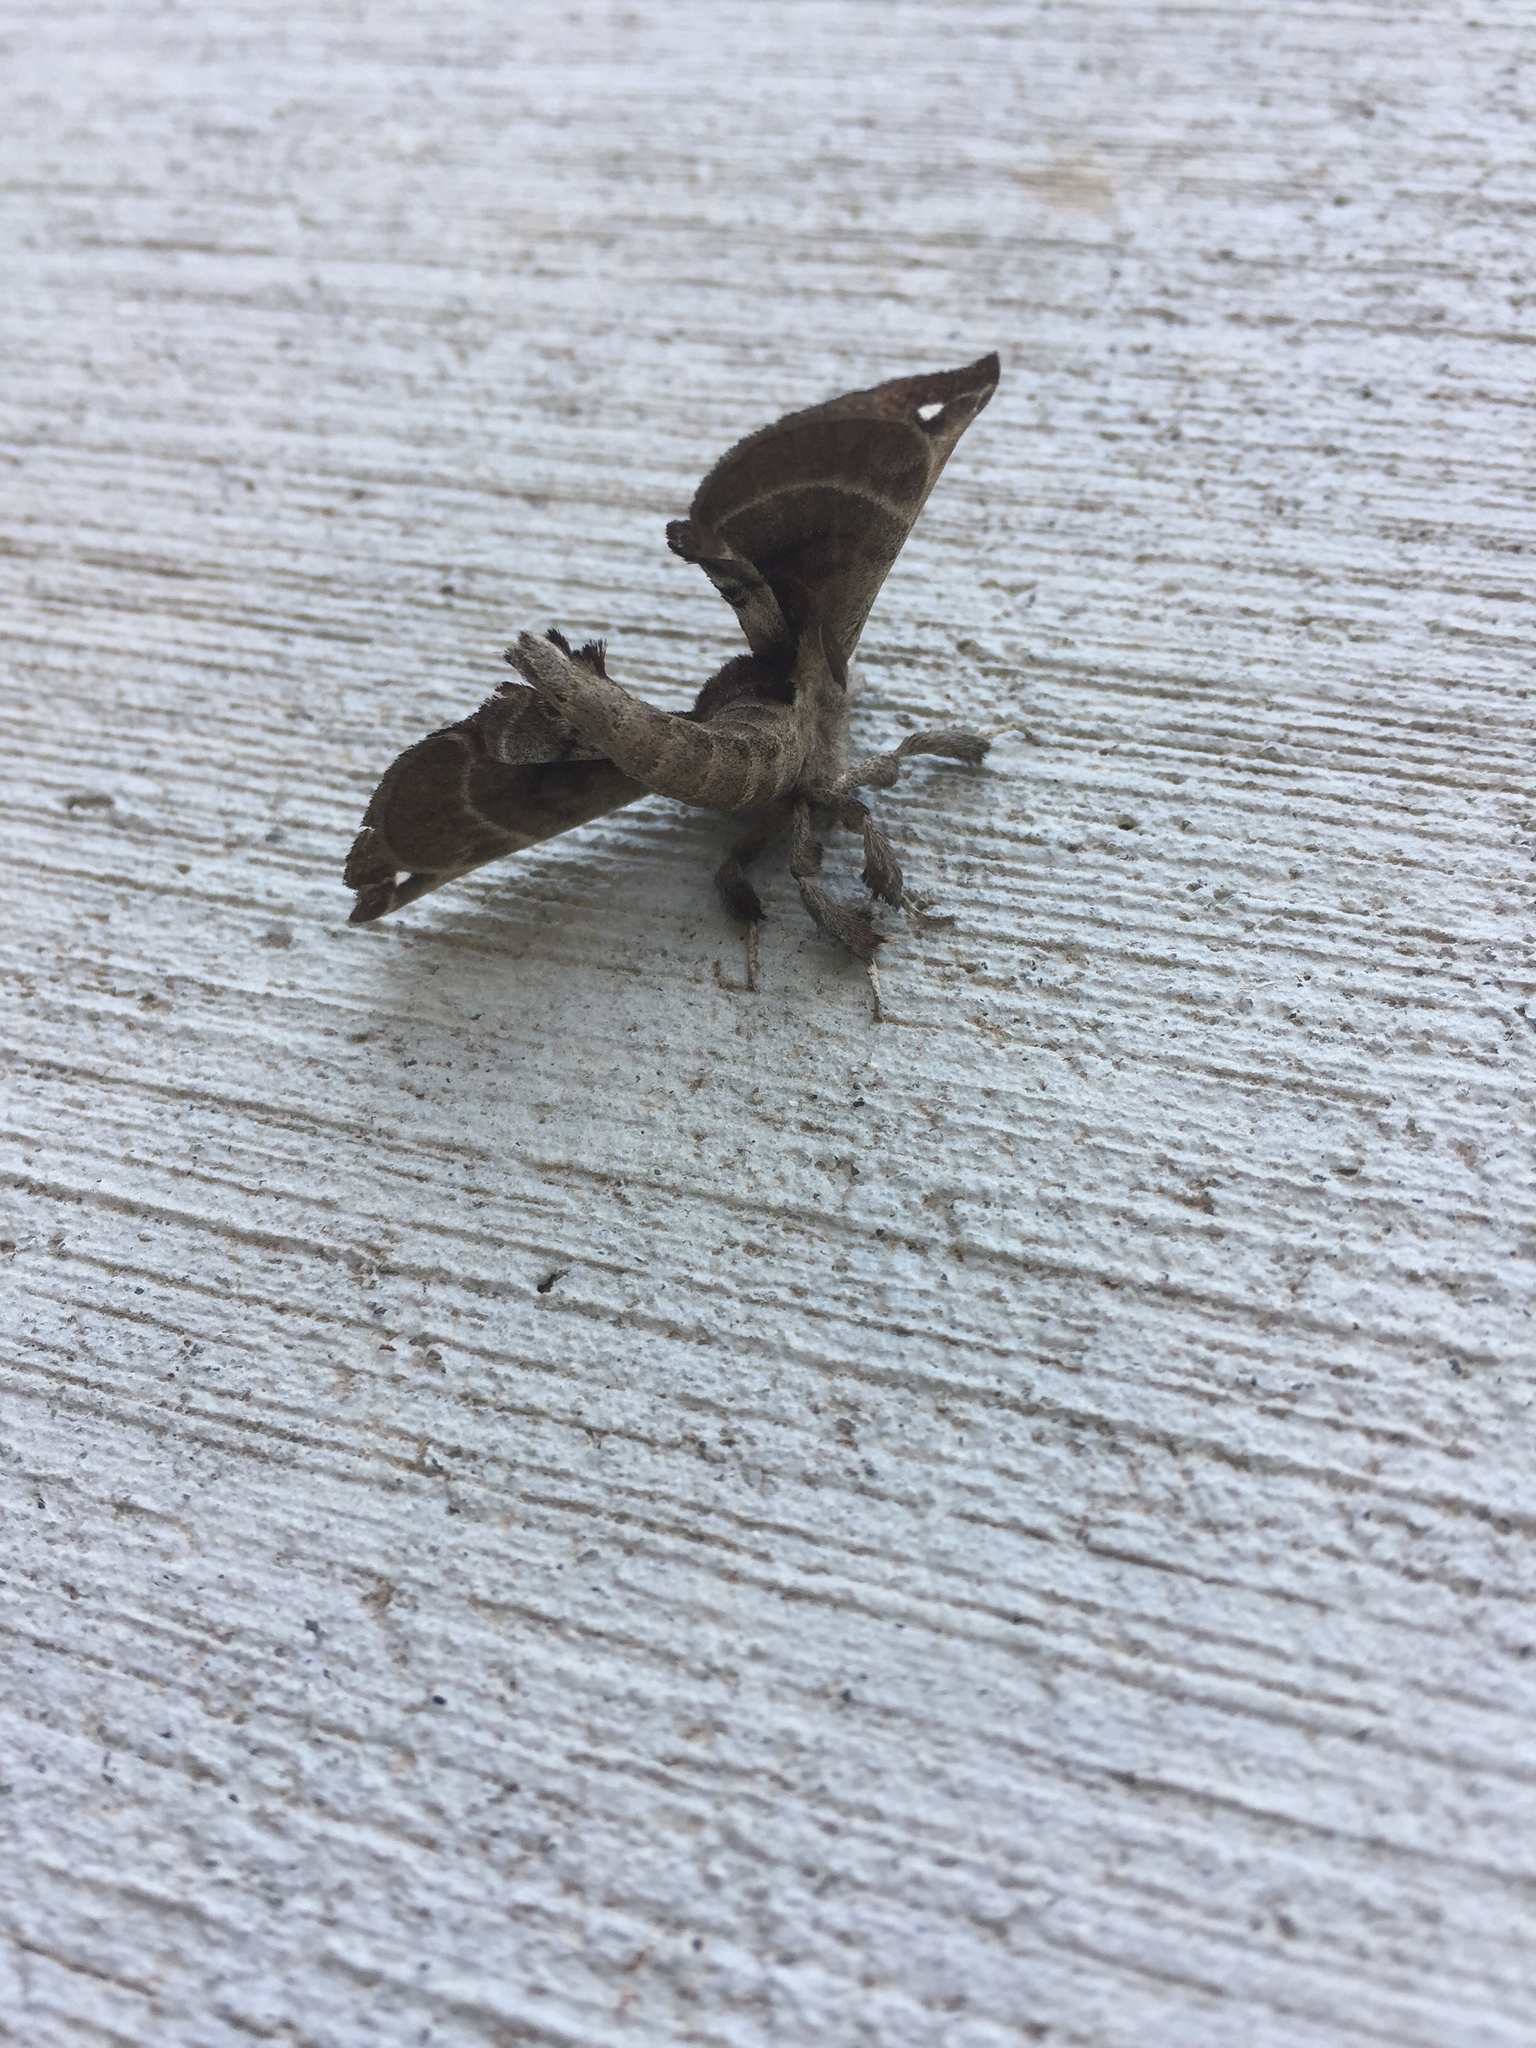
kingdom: Animalia
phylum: Arthropoda
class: Insecta
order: Lepidoptera
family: Apatelodidae
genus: Hygrochroa
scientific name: Hygrochroa Apatelodes torrefacta
